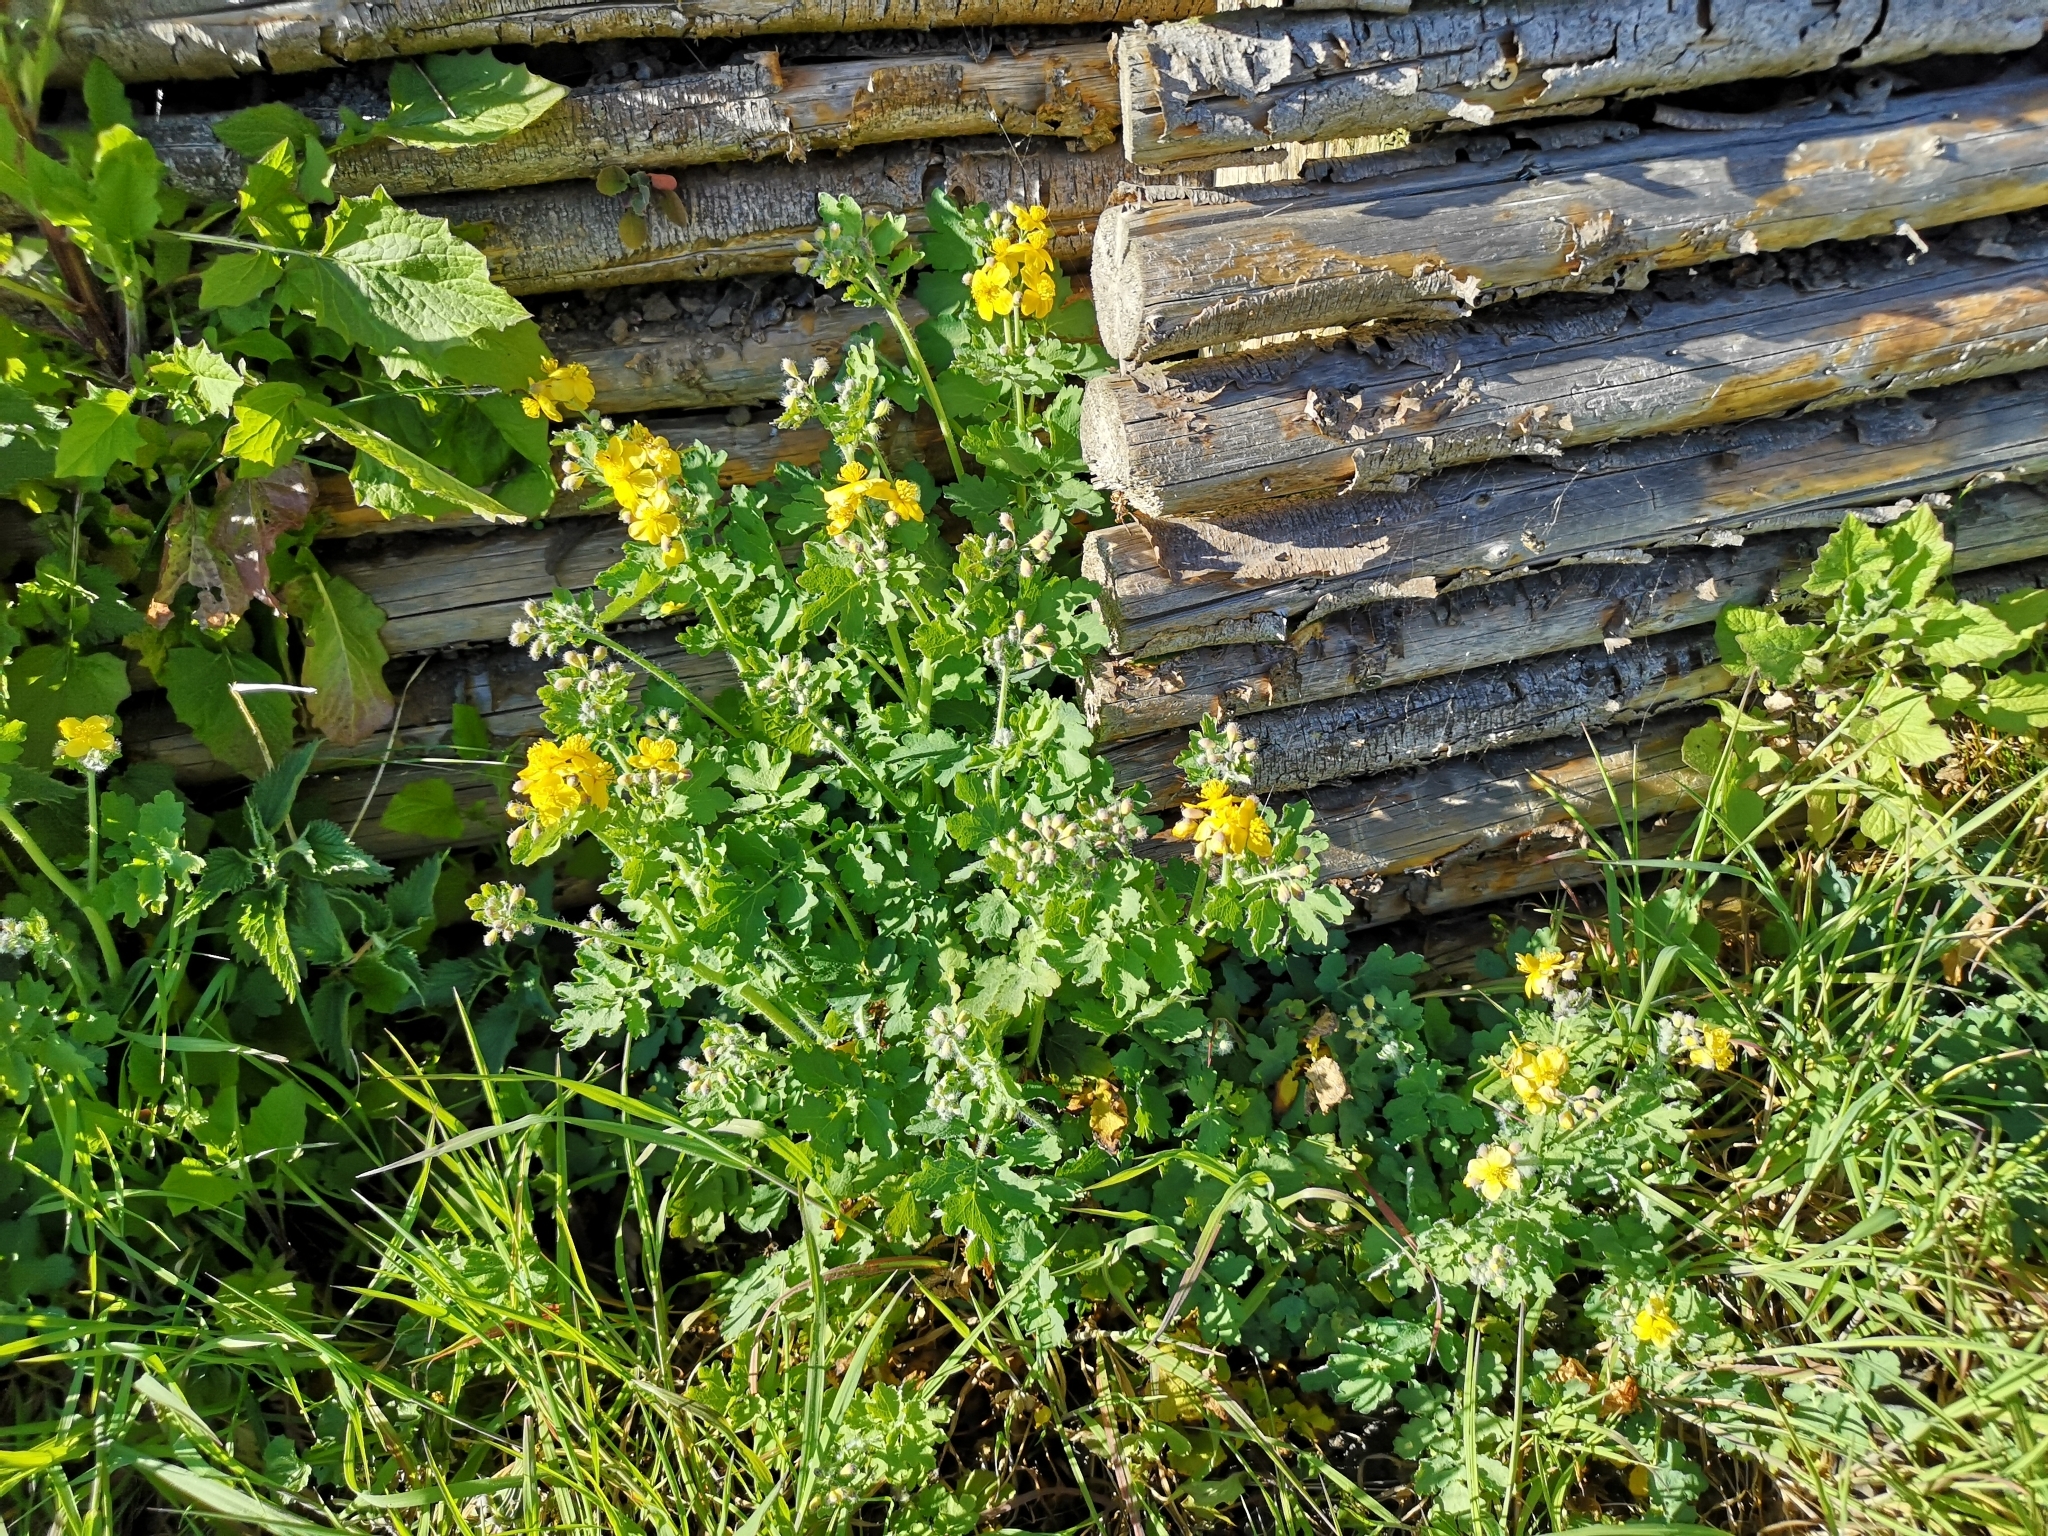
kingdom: Plantae
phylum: Tracheophyta
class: Magnoliopsida
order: Ranunculales
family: Papaveraceae
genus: Chelidonium
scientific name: Chelidonium majus
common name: Greater celandine
